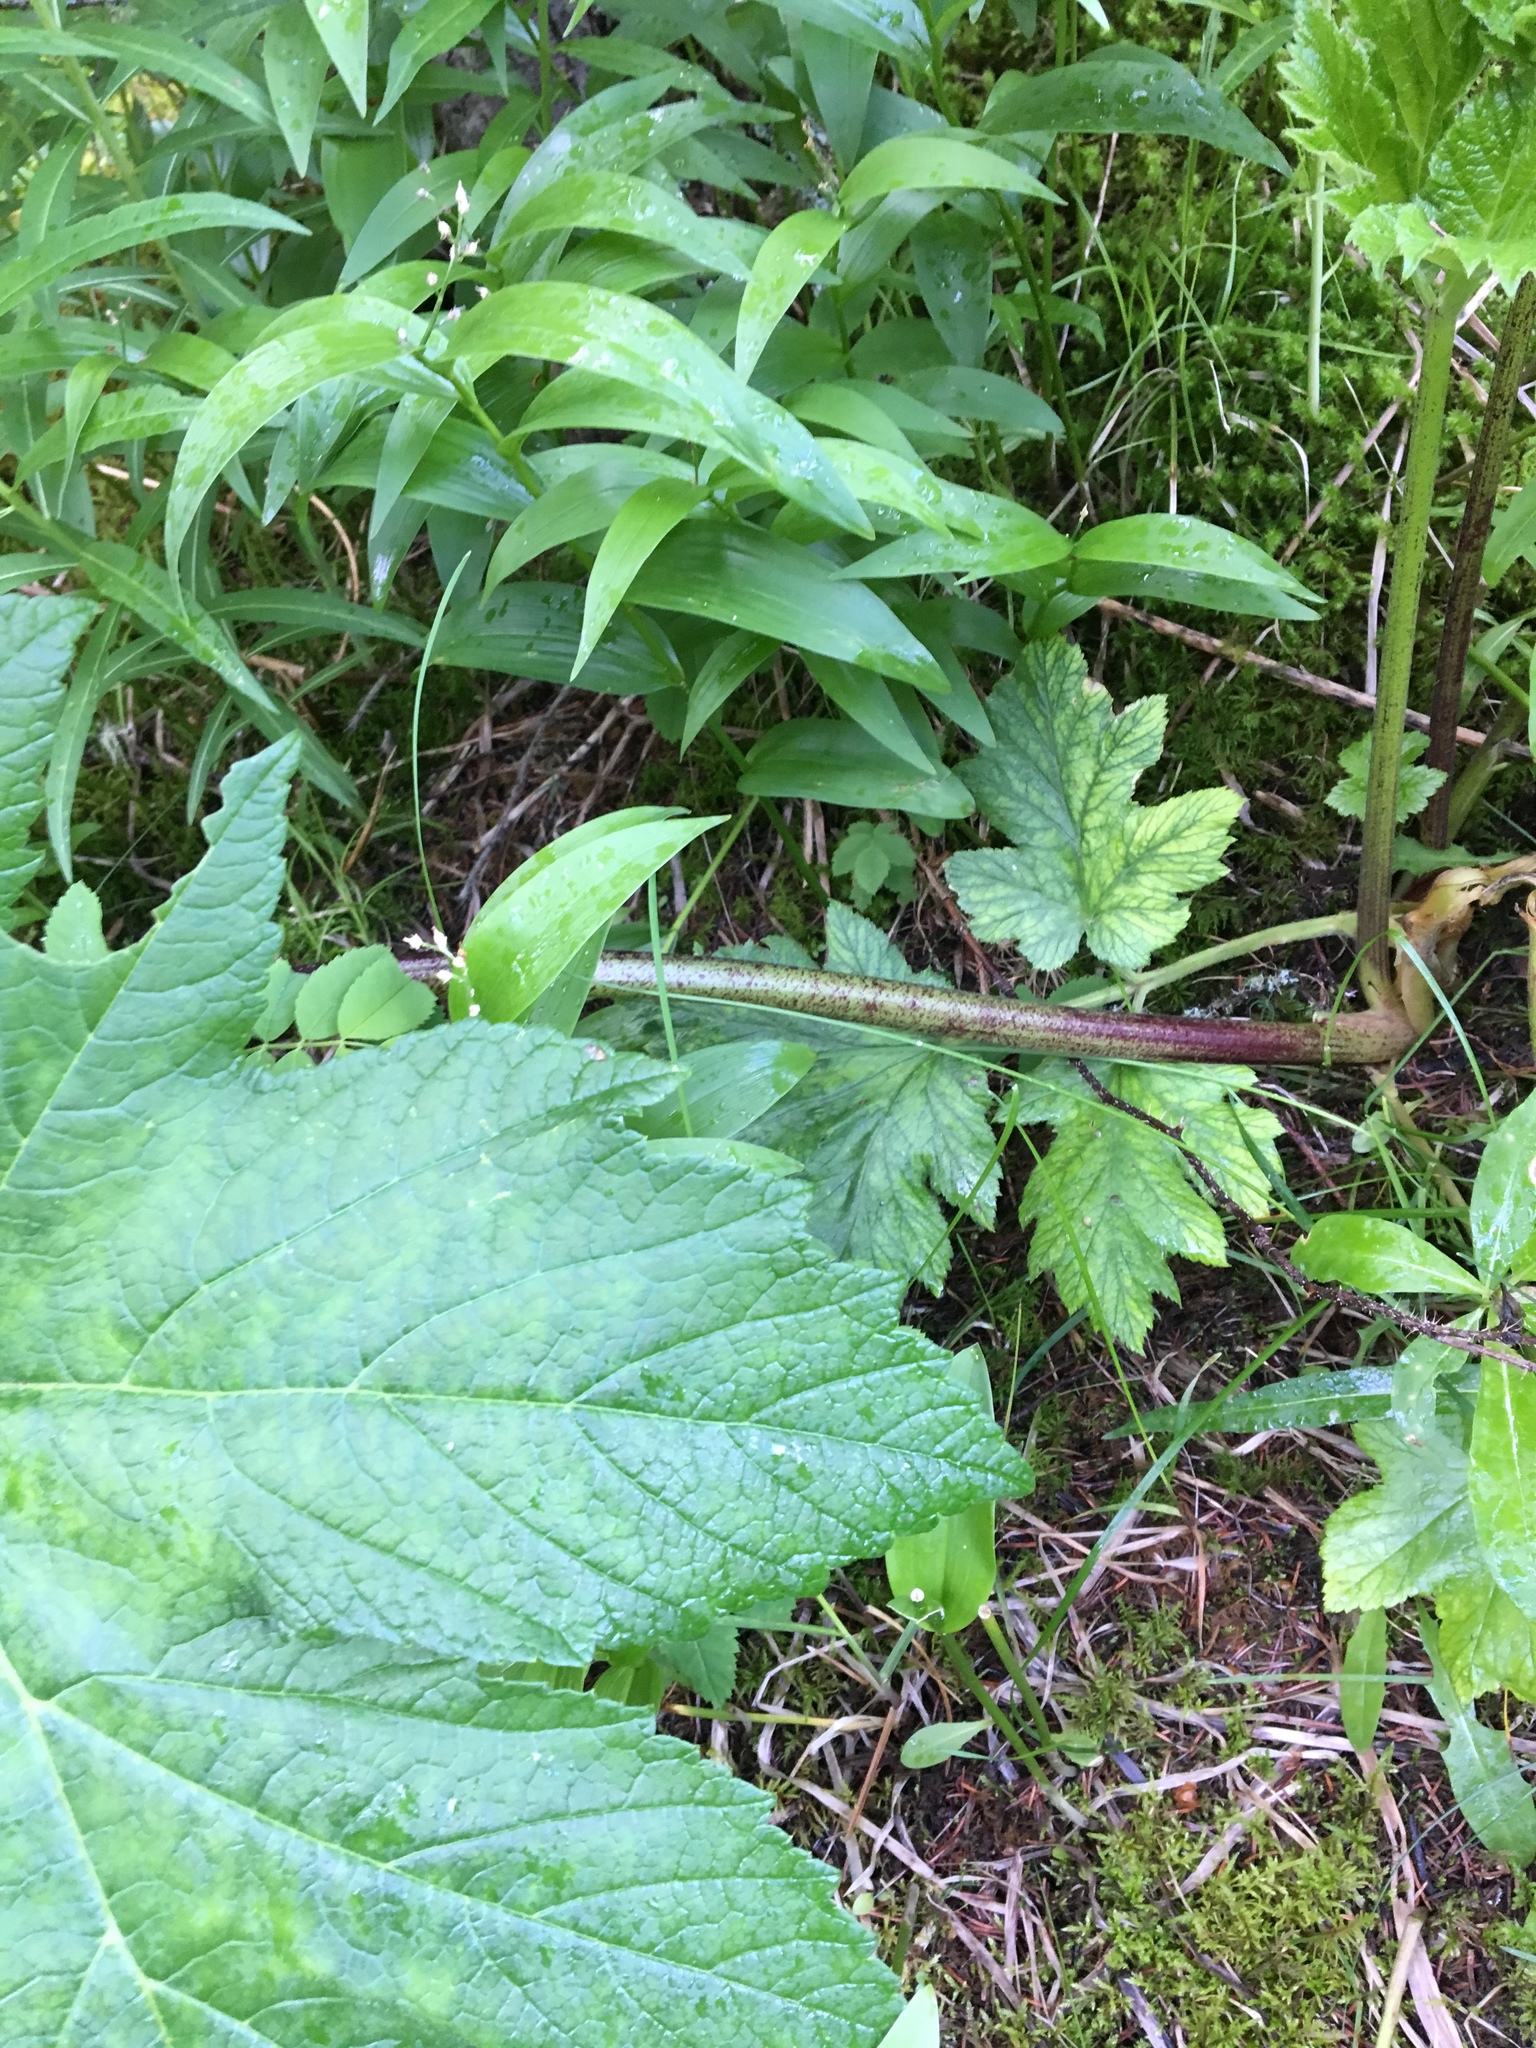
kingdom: Plantae
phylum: Tracheophyta
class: Magnoliopsida
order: Apiales
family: Apiaceae
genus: Heracleum
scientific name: Heracleum maximum
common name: American cow parsnip
